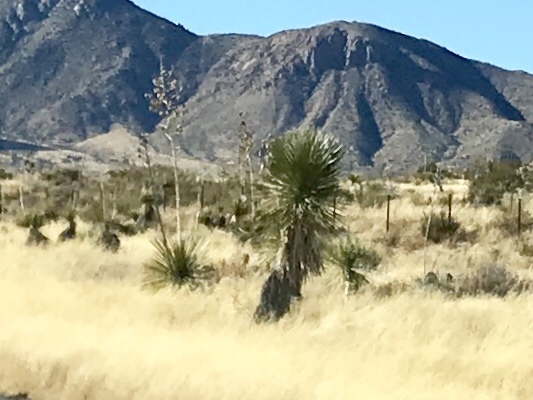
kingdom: Plantae
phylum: Tracheophyta
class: Liliopsida
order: Asparagales
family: Asparagaceae
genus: Yucca
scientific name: Yucca elata
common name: Palmella
